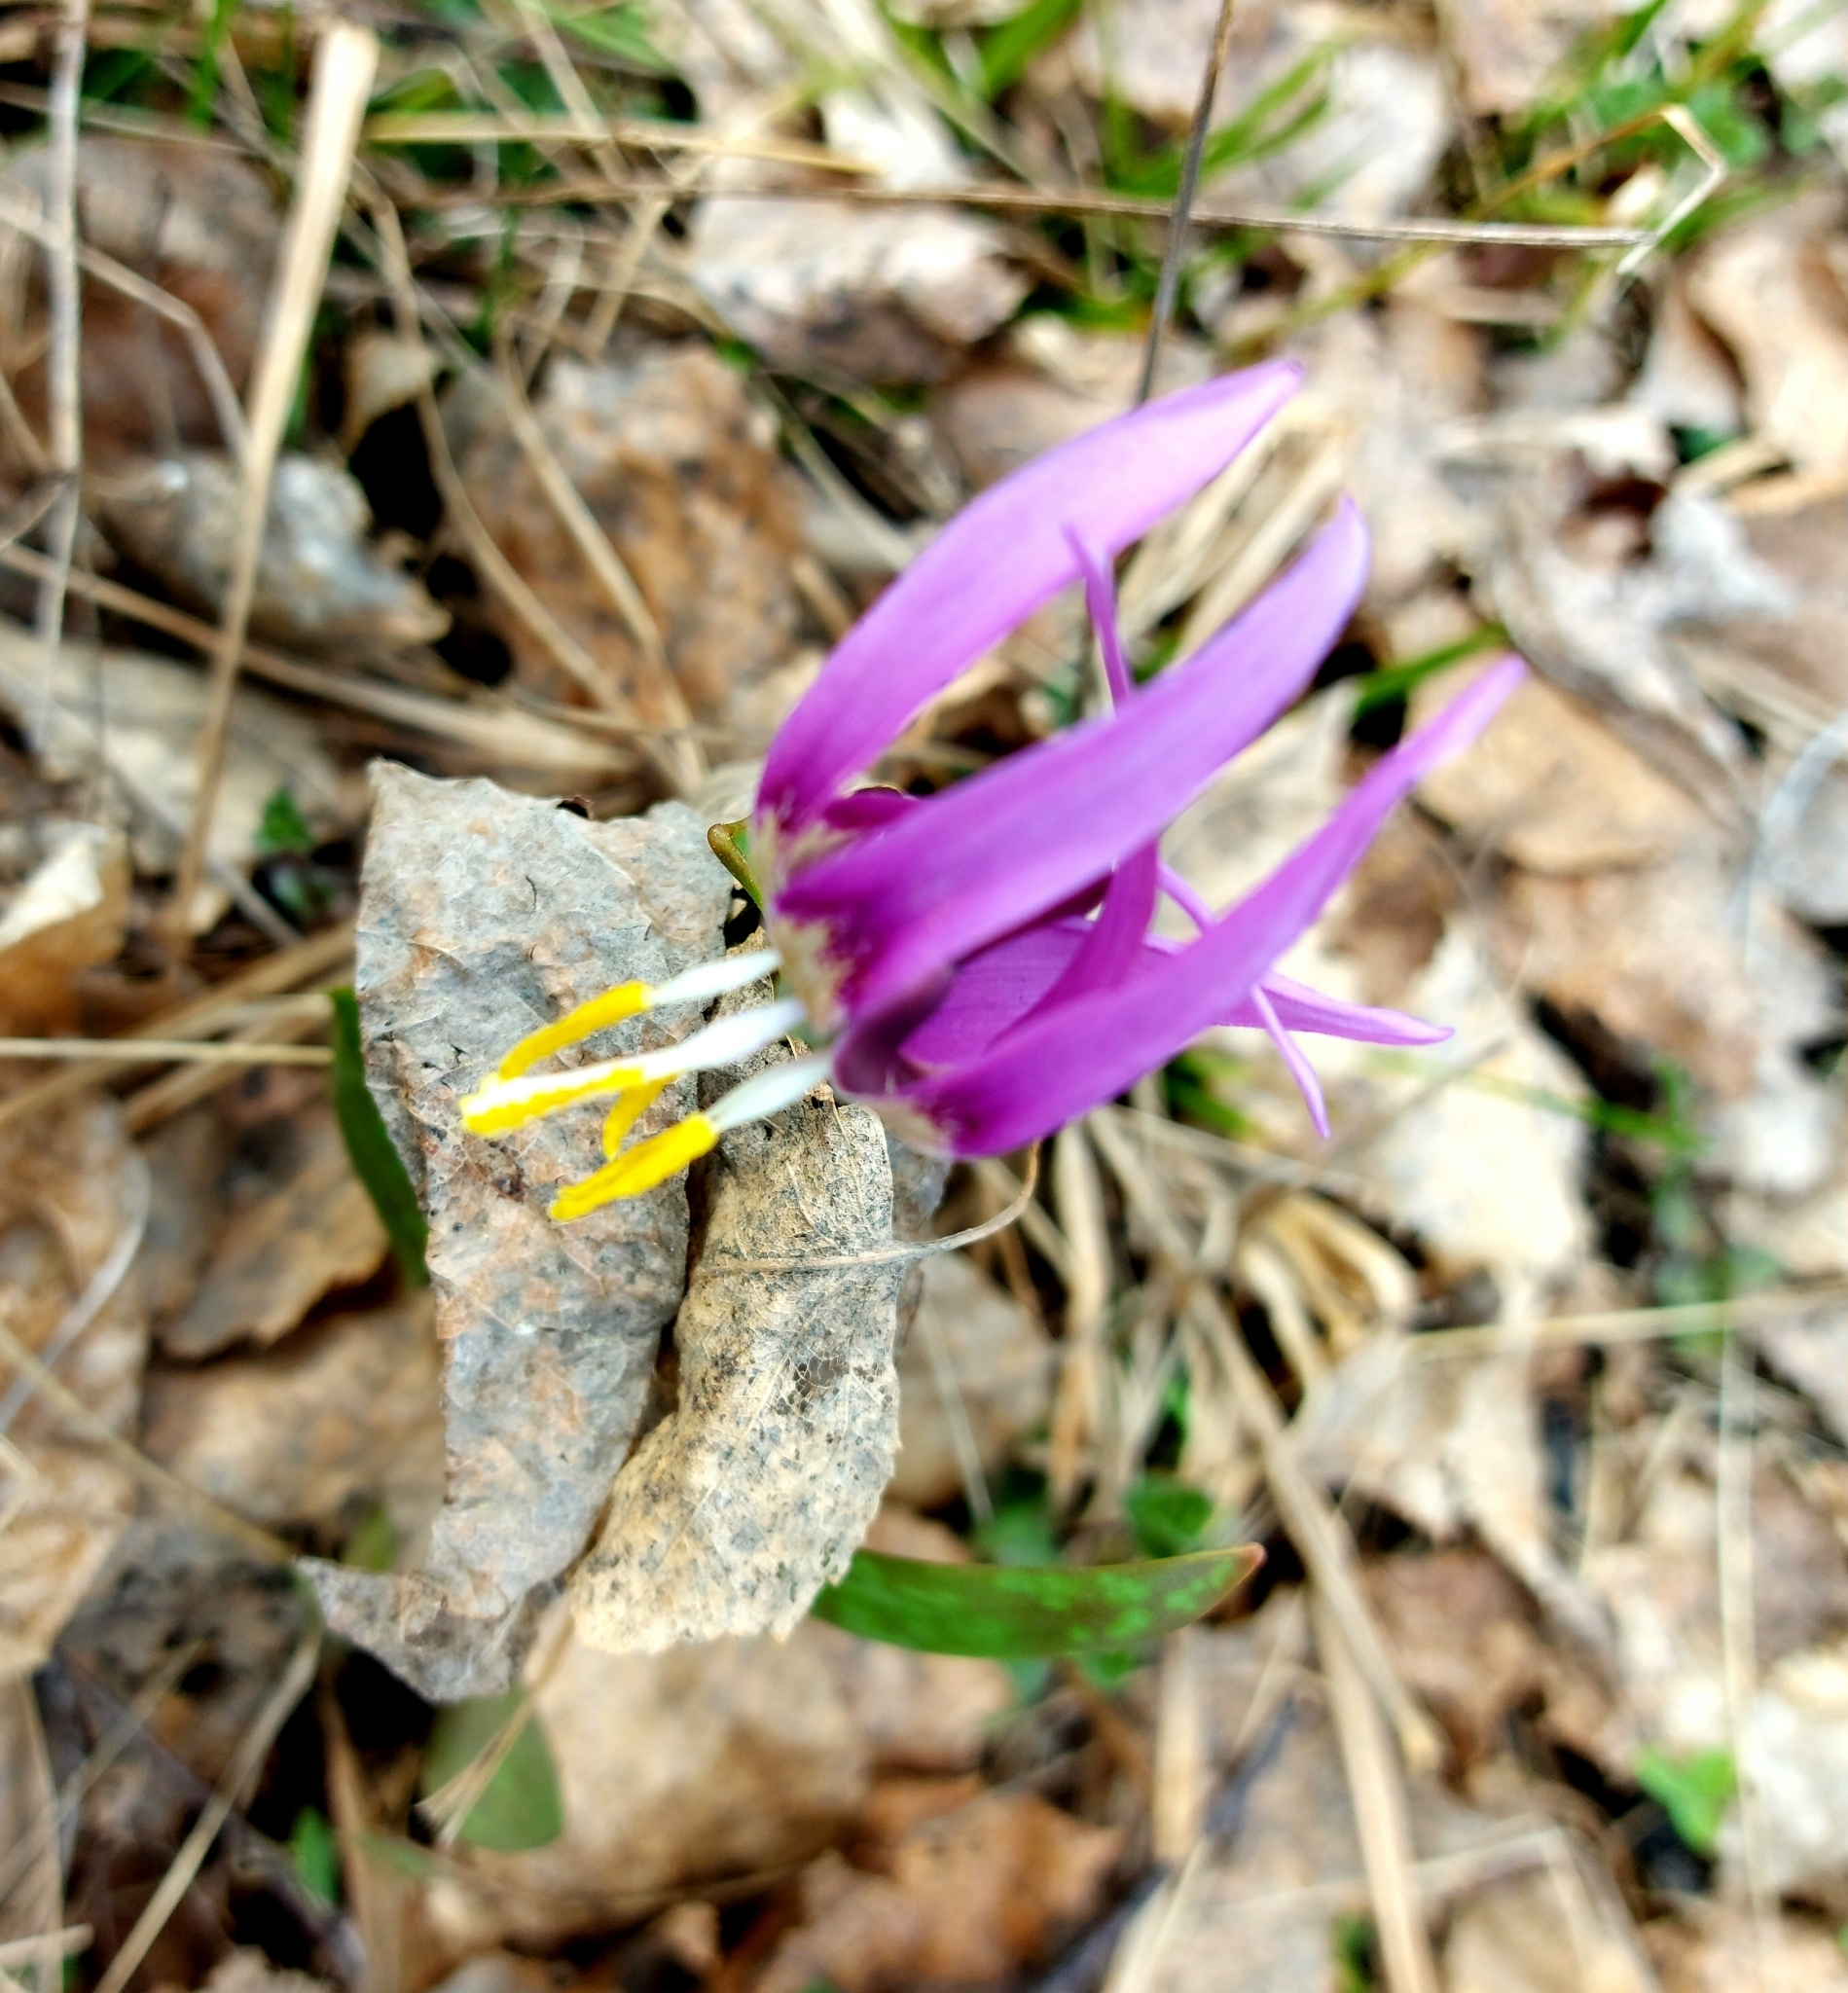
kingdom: Plantae
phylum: Tracheophyta
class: Liliopsida
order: Liliales
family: Liliaceae
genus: Erythronium
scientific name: Erythronium sibiricum
